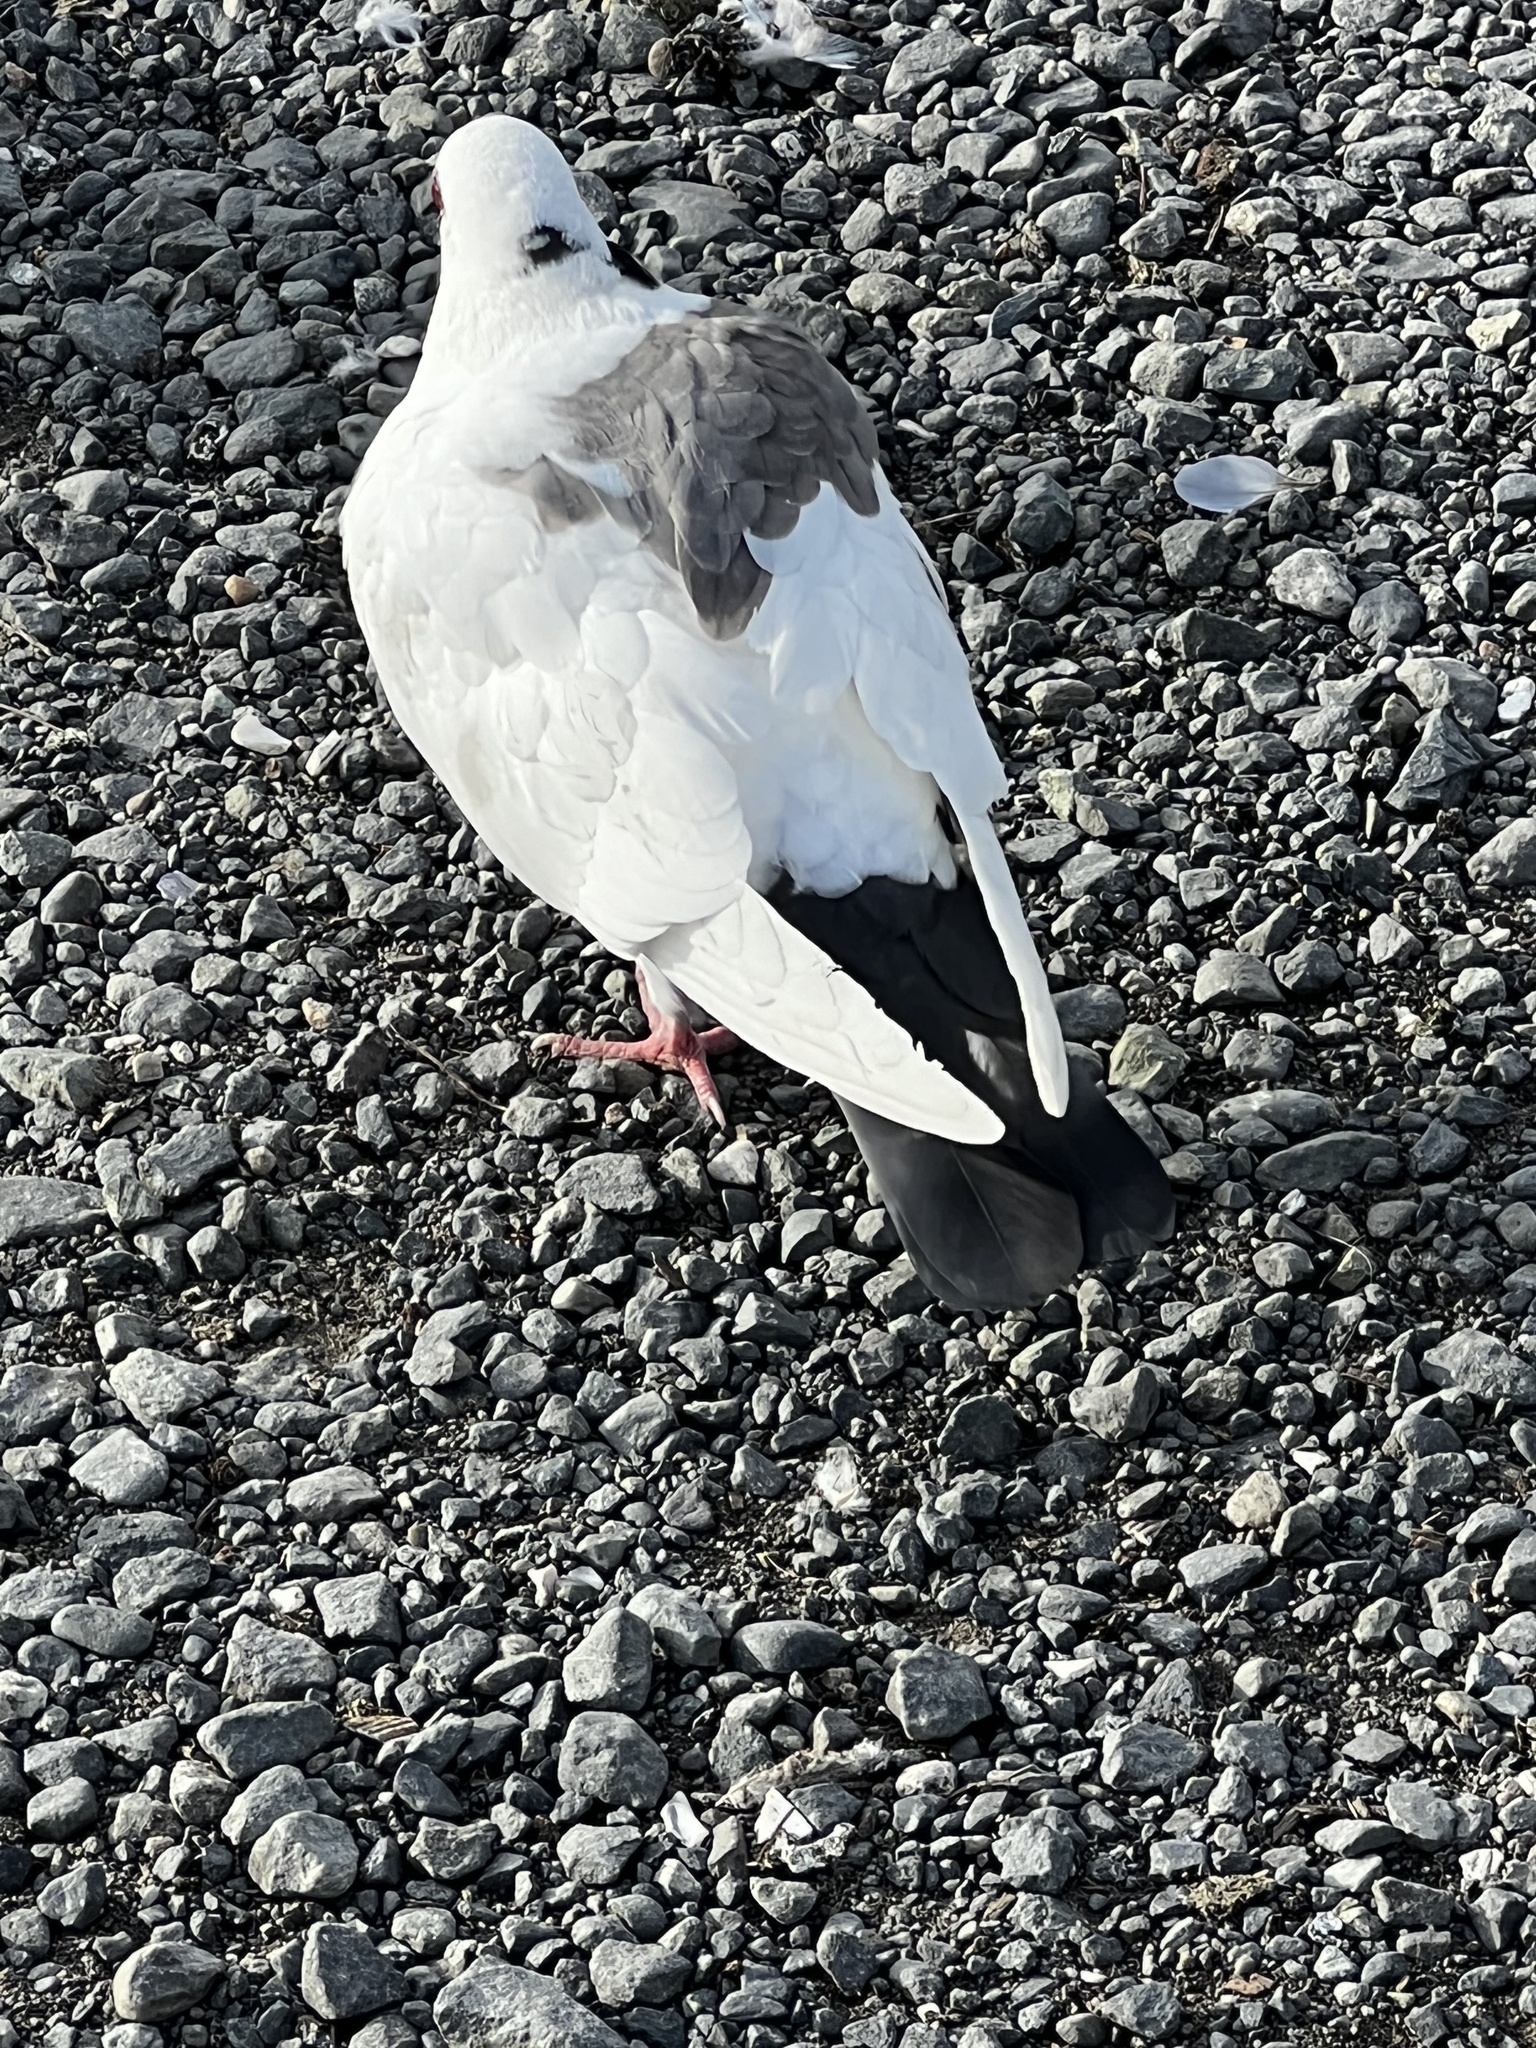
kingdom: Animalia
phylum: Chordata
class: Aves
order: Columbiformes
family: Columbidae
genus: Columba
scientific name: Columba livia
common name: Rock pigeon
